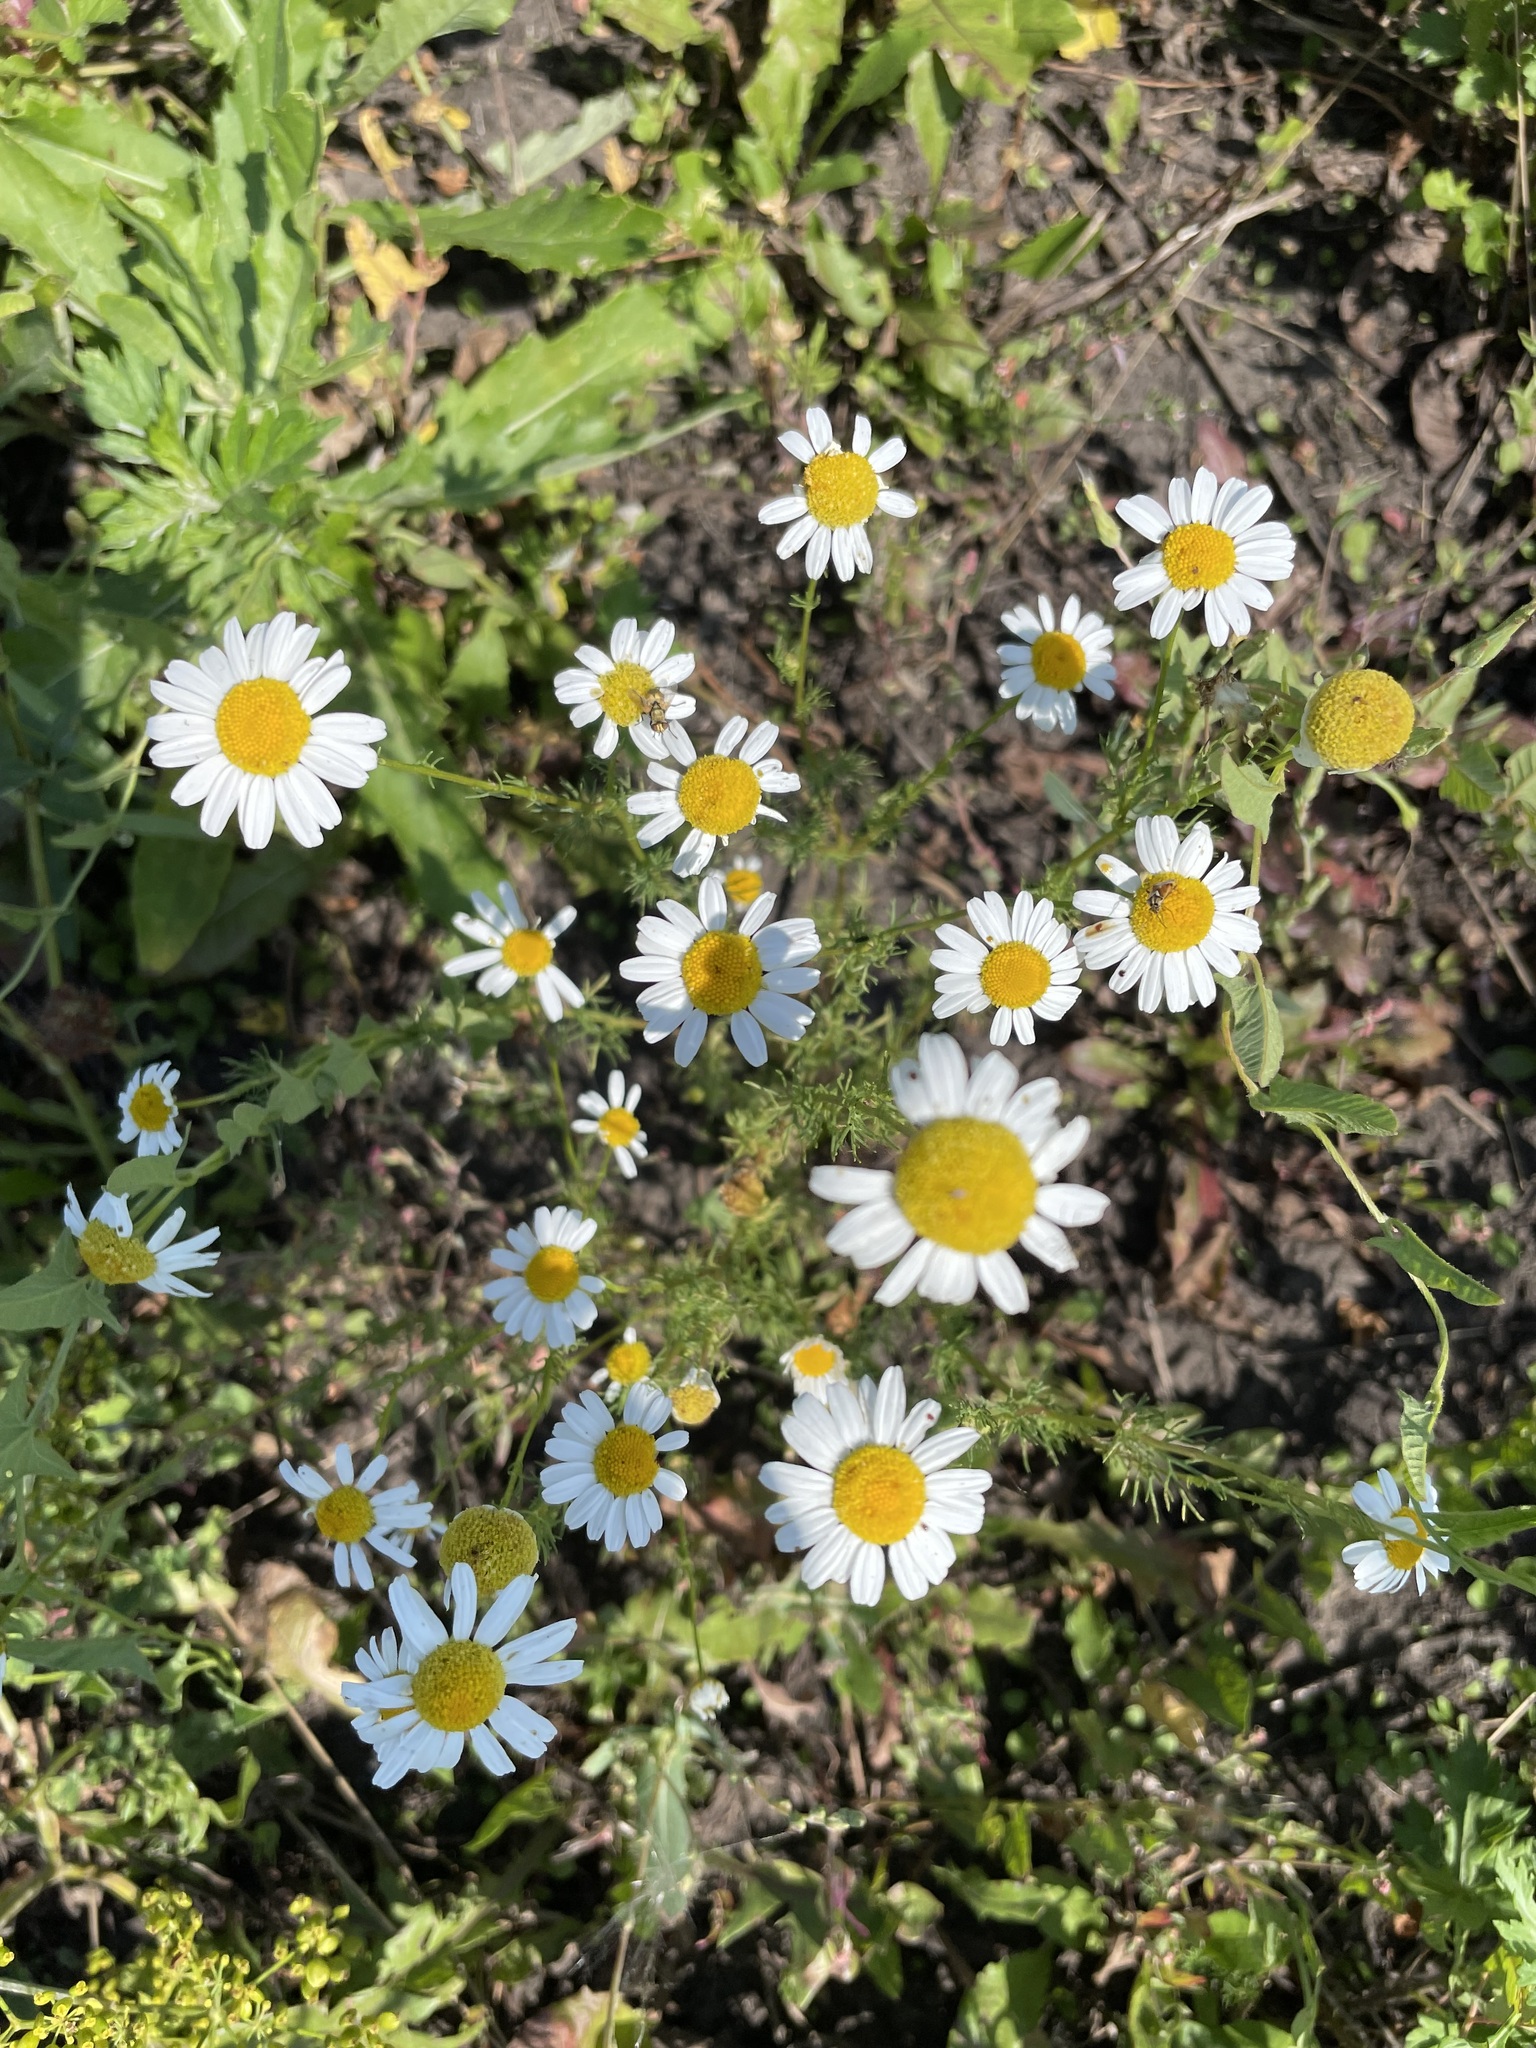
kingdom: Plantae
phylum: Tracheophyta
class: Magnoliopsida
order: Asterales
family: Asteraceae
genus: Tripleurospermum
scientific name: Tripleurospermum inodorum
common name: Scentless mayweed
